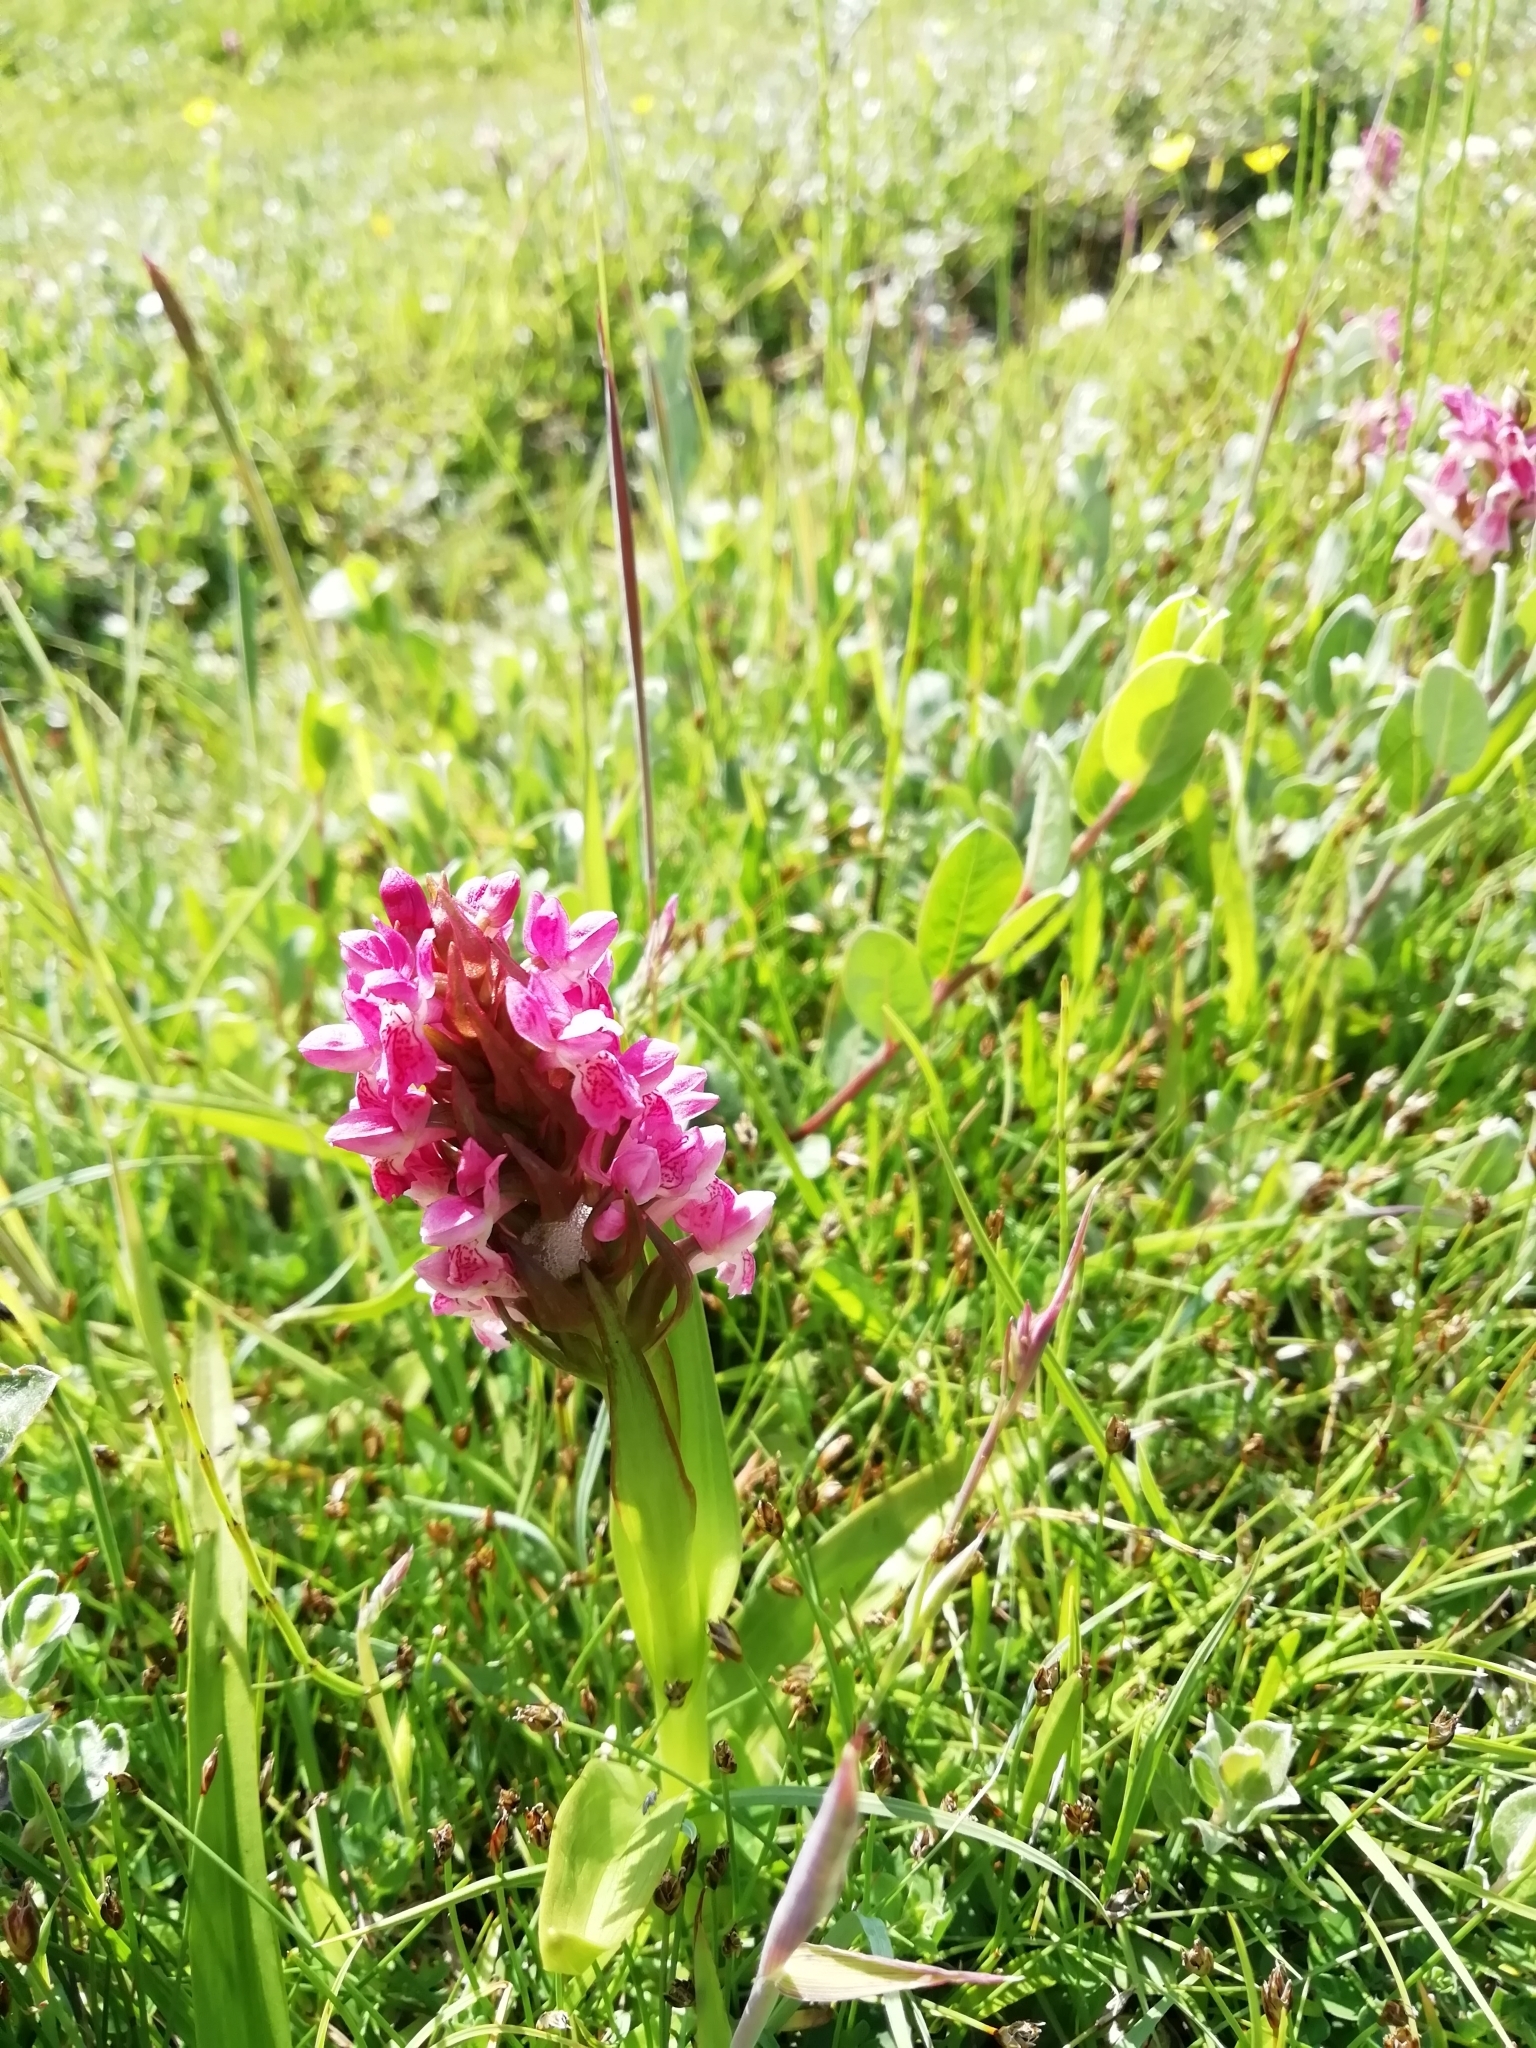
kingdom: Plantae
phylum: Tracheophyta
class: Liliopsida
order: Asparagales
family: Orchidaceae
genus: Dactylorhiza
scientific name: Dactylorhiza incarnata
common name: Early marsh-orchid
